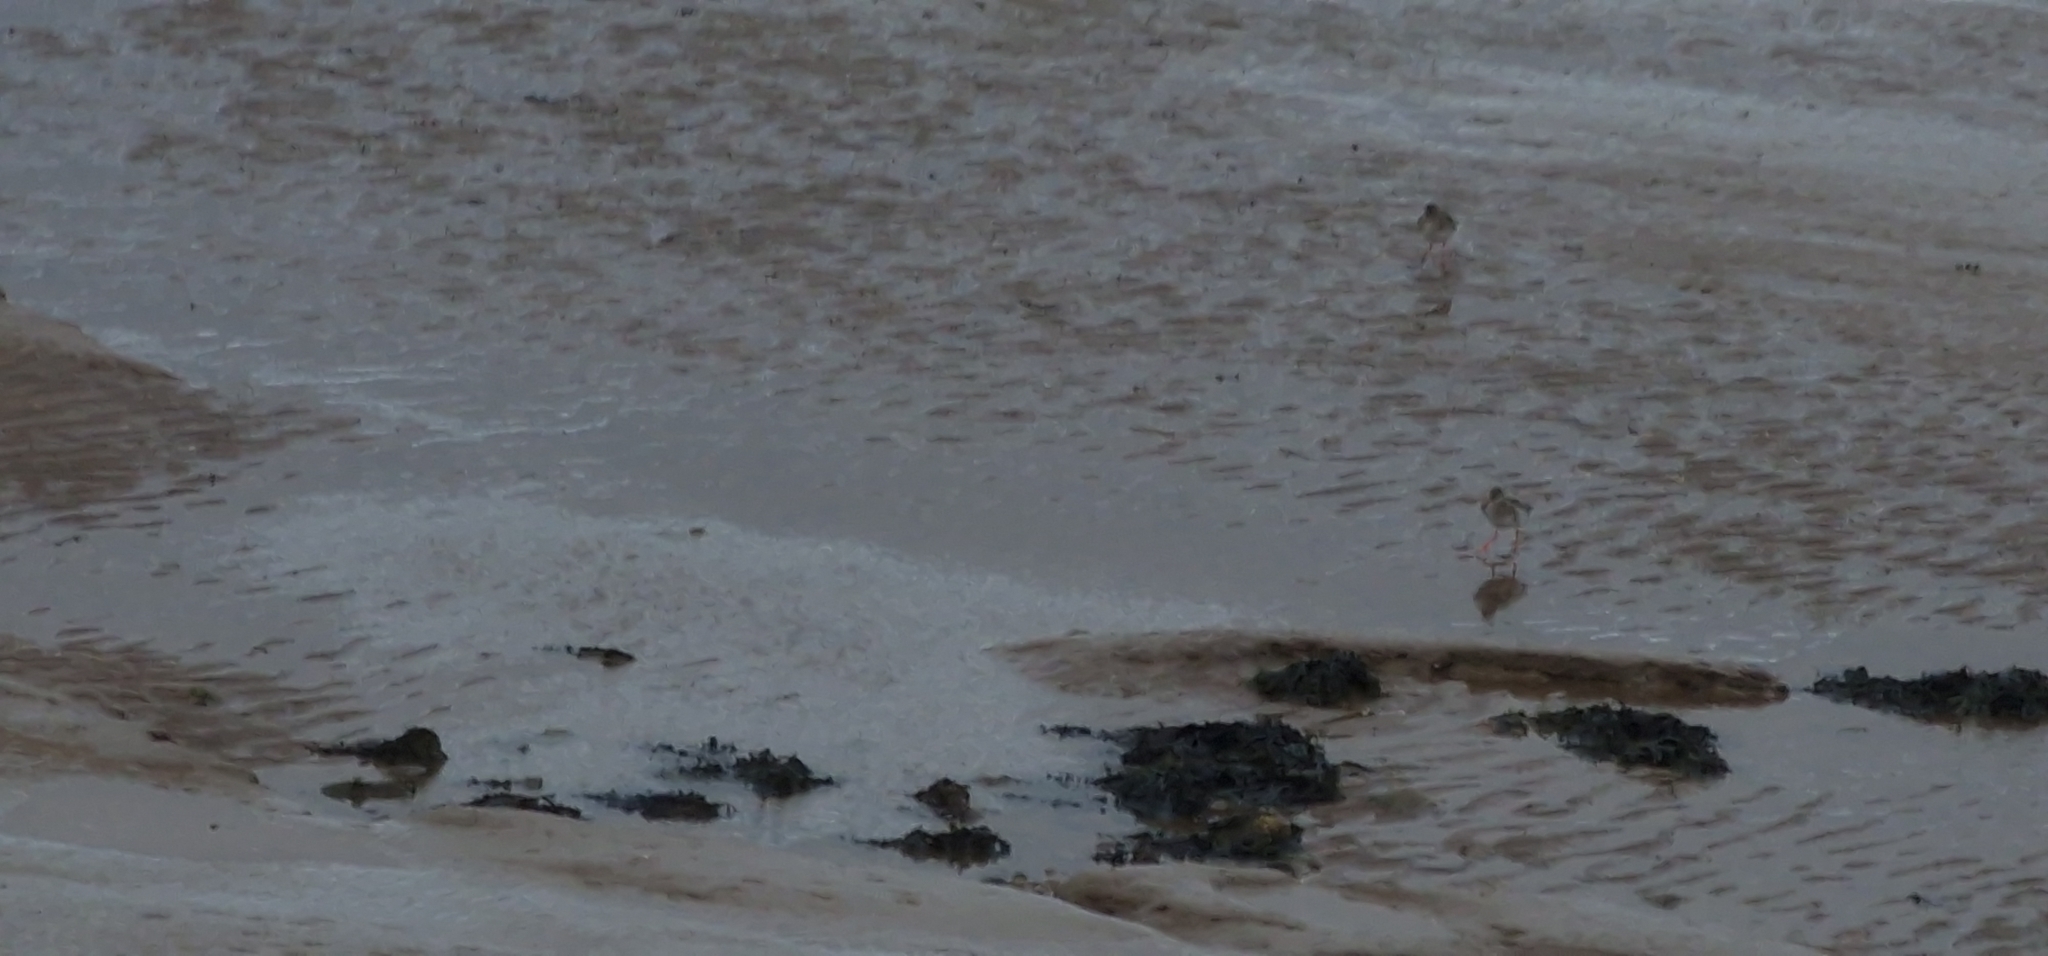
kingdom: Animalia
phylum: Chordata
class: Aves
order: Charadriiformes
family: Scolopacidae
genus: Tringa
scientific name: Tringa totanus
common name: Common redshank
